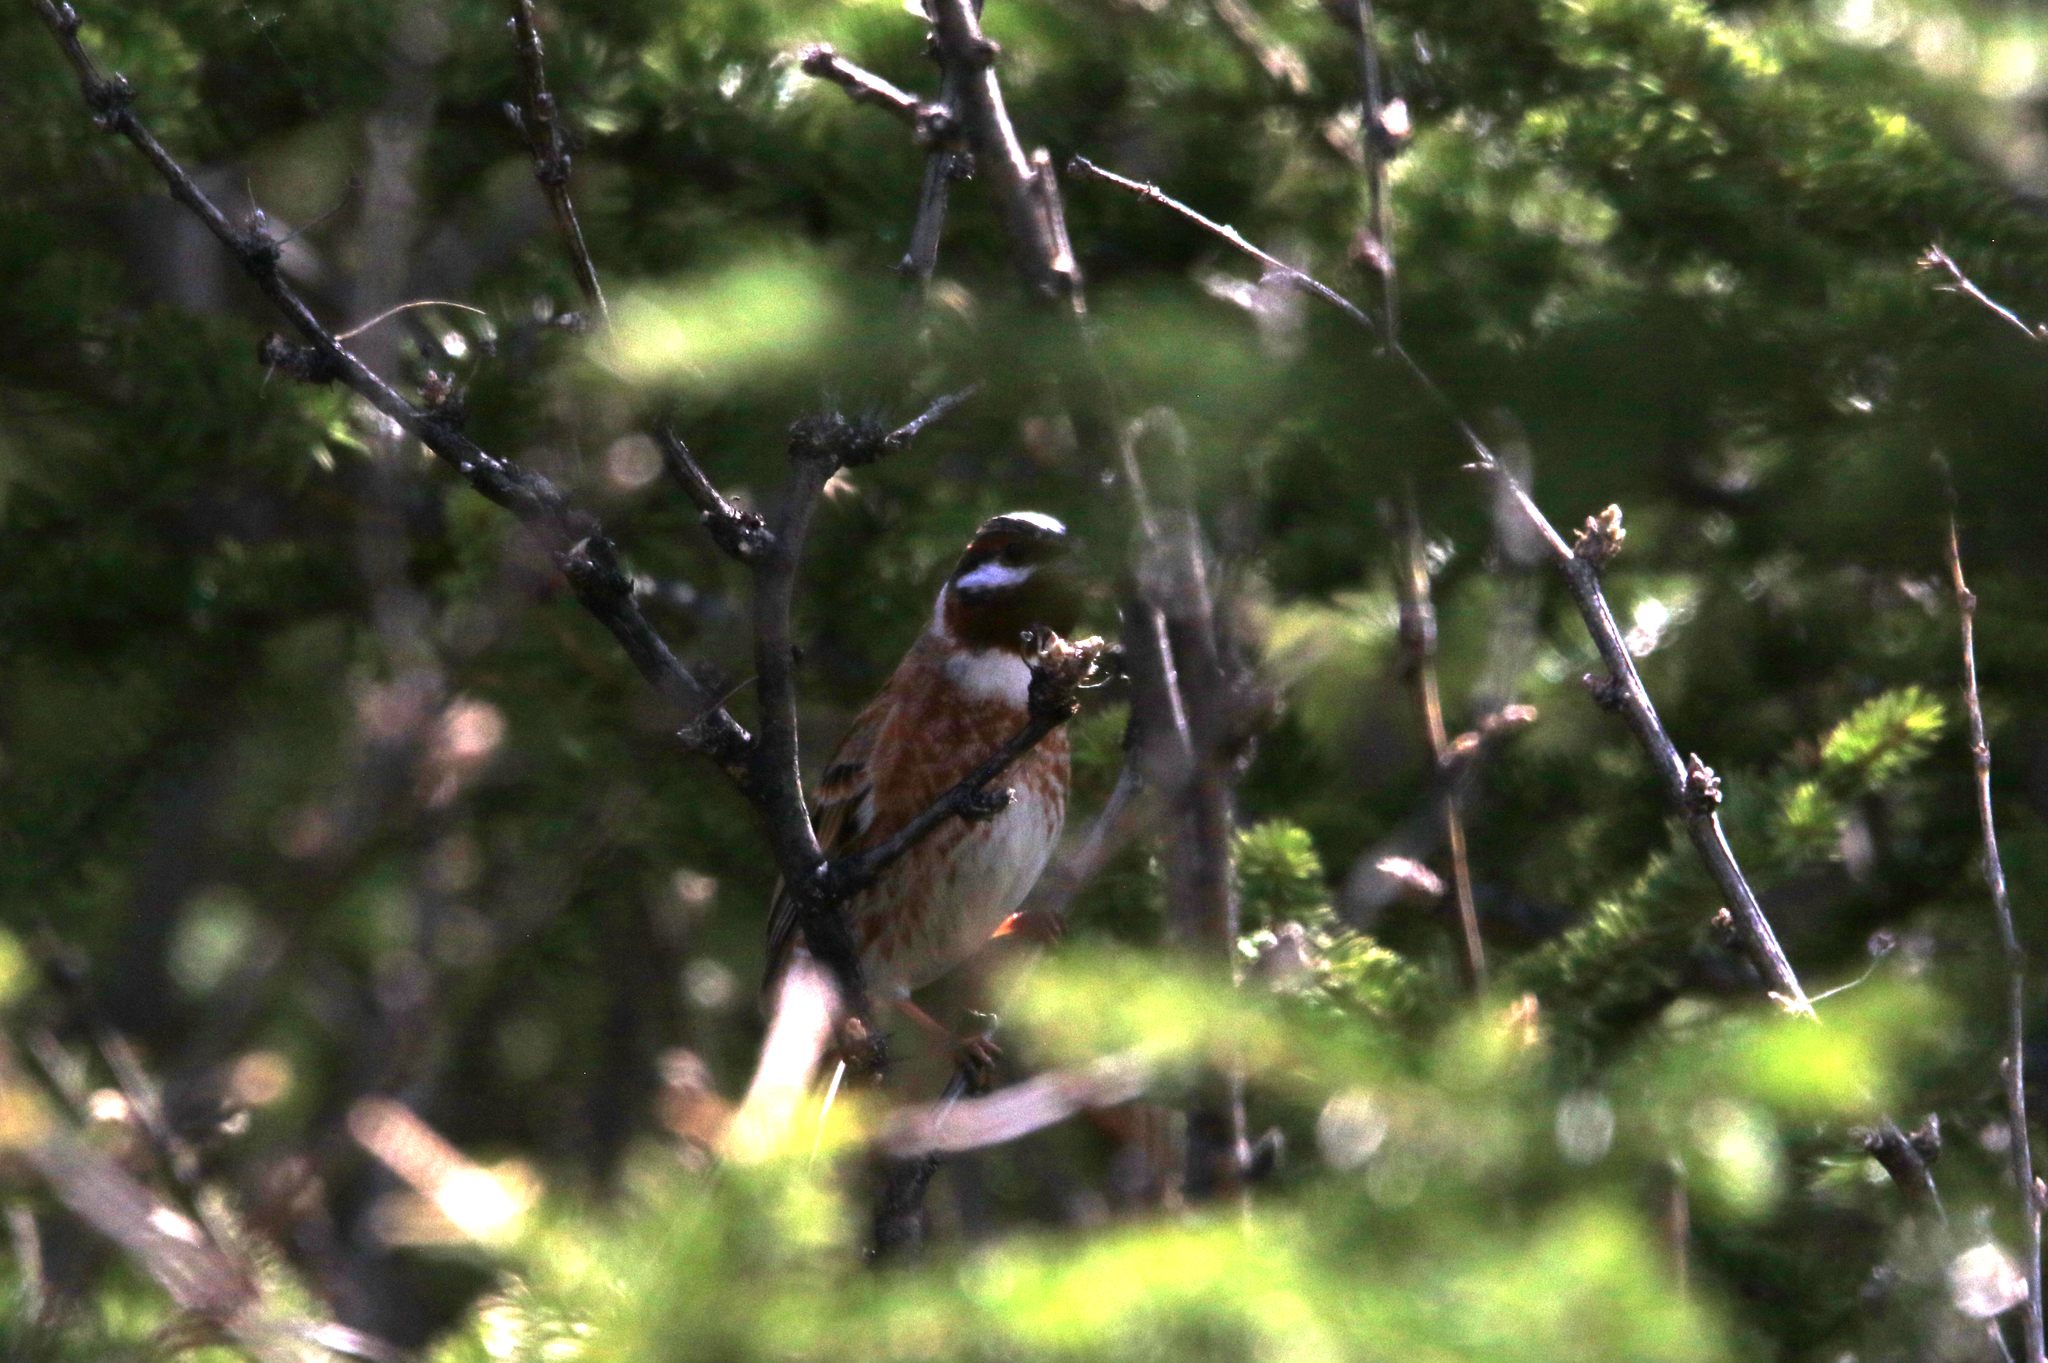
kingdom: Animalia
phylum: Chordata
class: Aves
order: Passeriformes
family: Emberizidae
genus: Emberiza
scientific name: Emberiza leucocephalos
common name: Pine bunting
